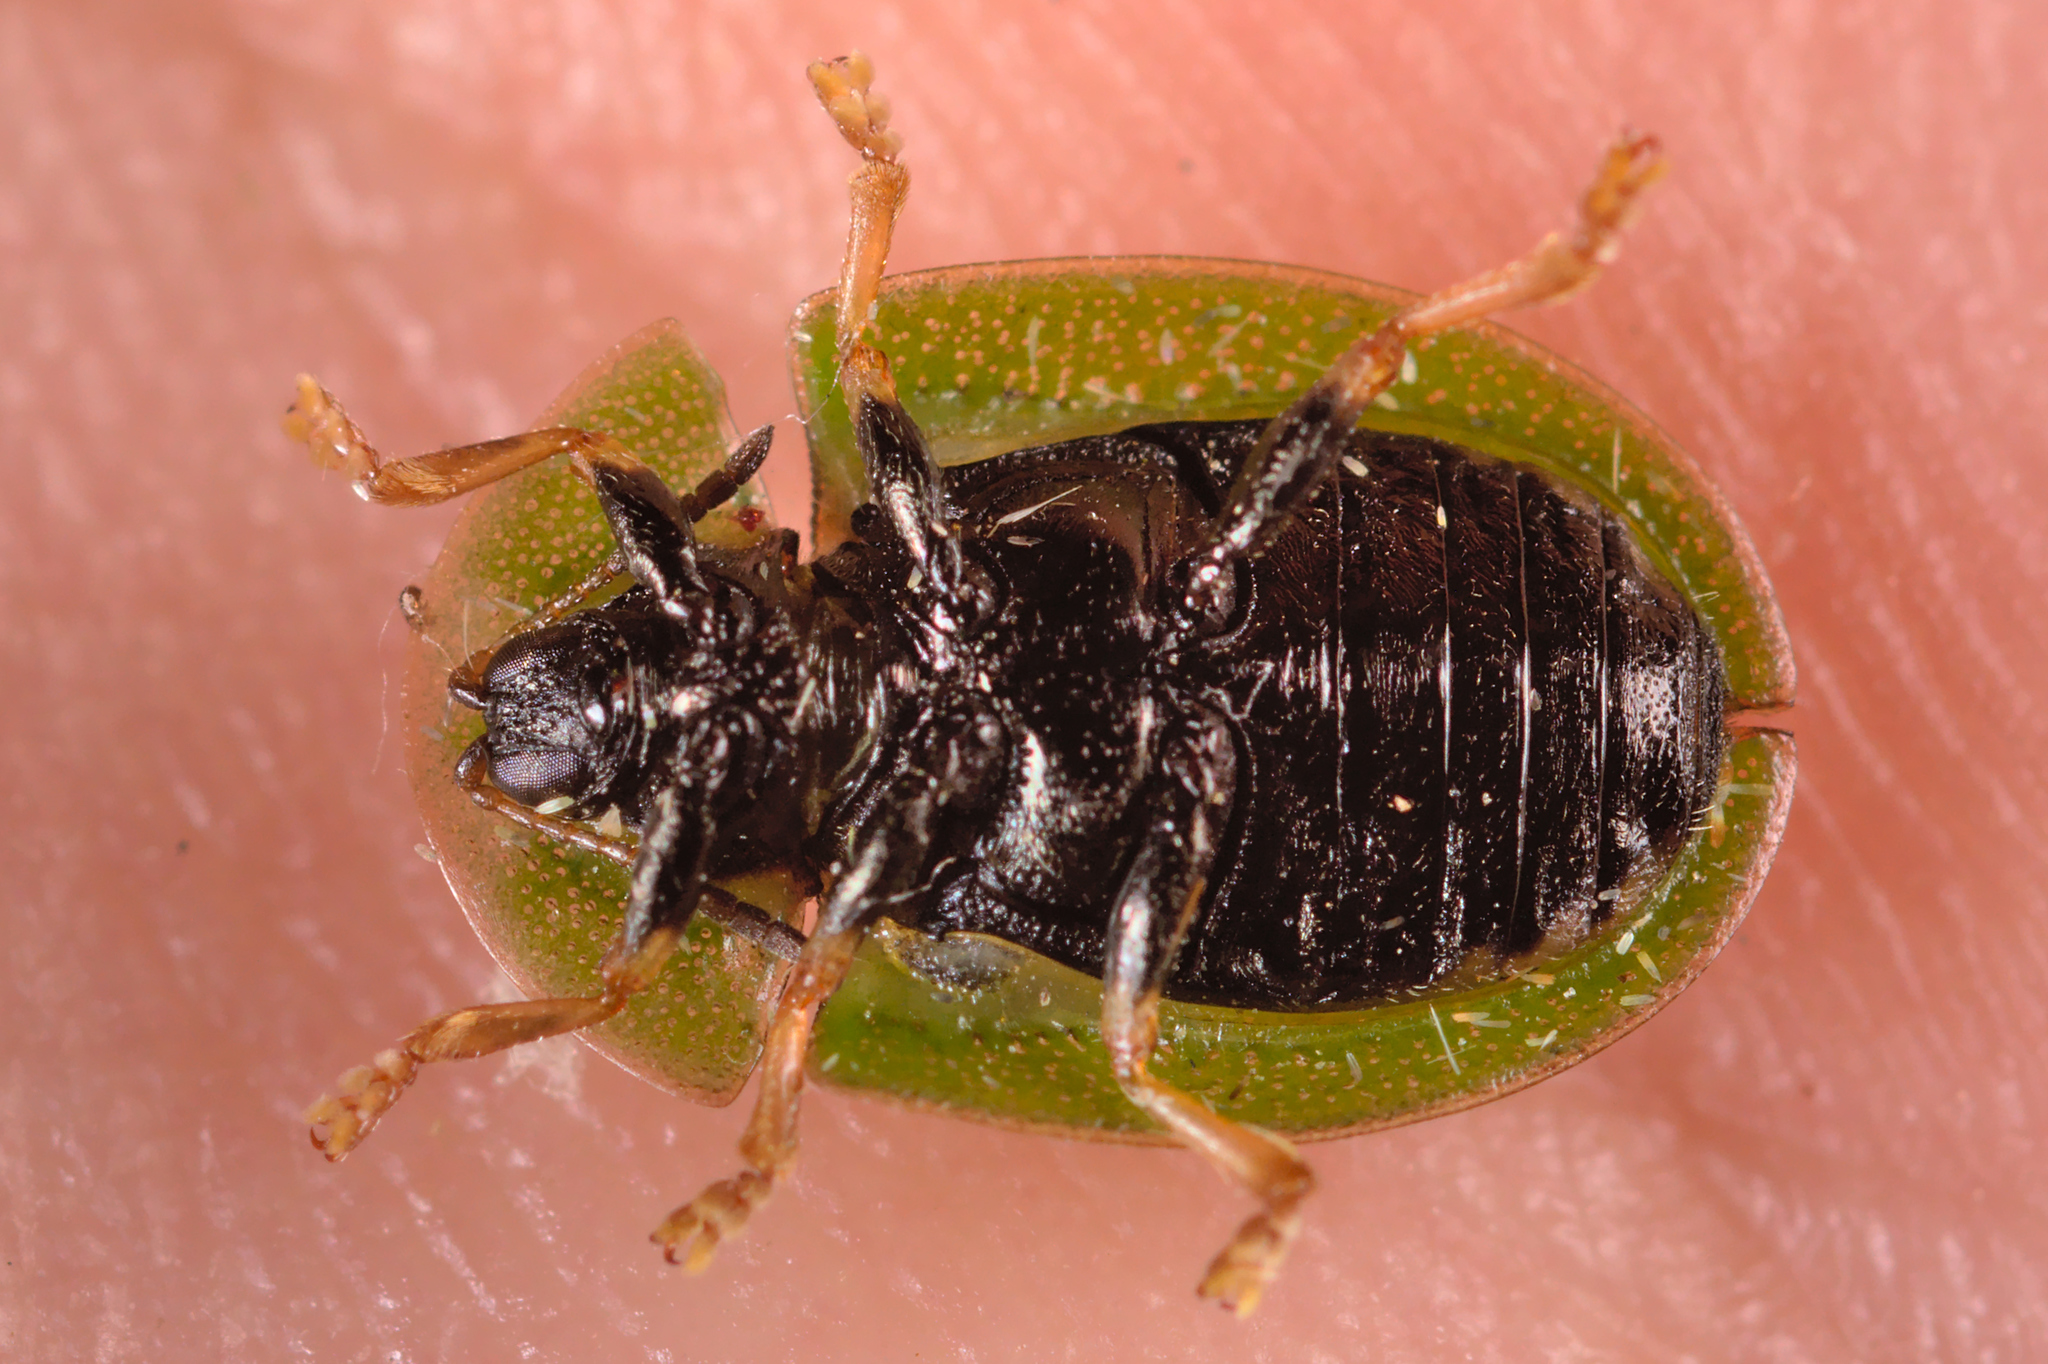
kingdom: Animalia
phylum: Arthropoda
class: Insecta
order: Coleoptera
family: Chrysomelidae
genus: Cassida
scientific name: Cassida rubiginosa
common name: Thistle tortoise beetle
